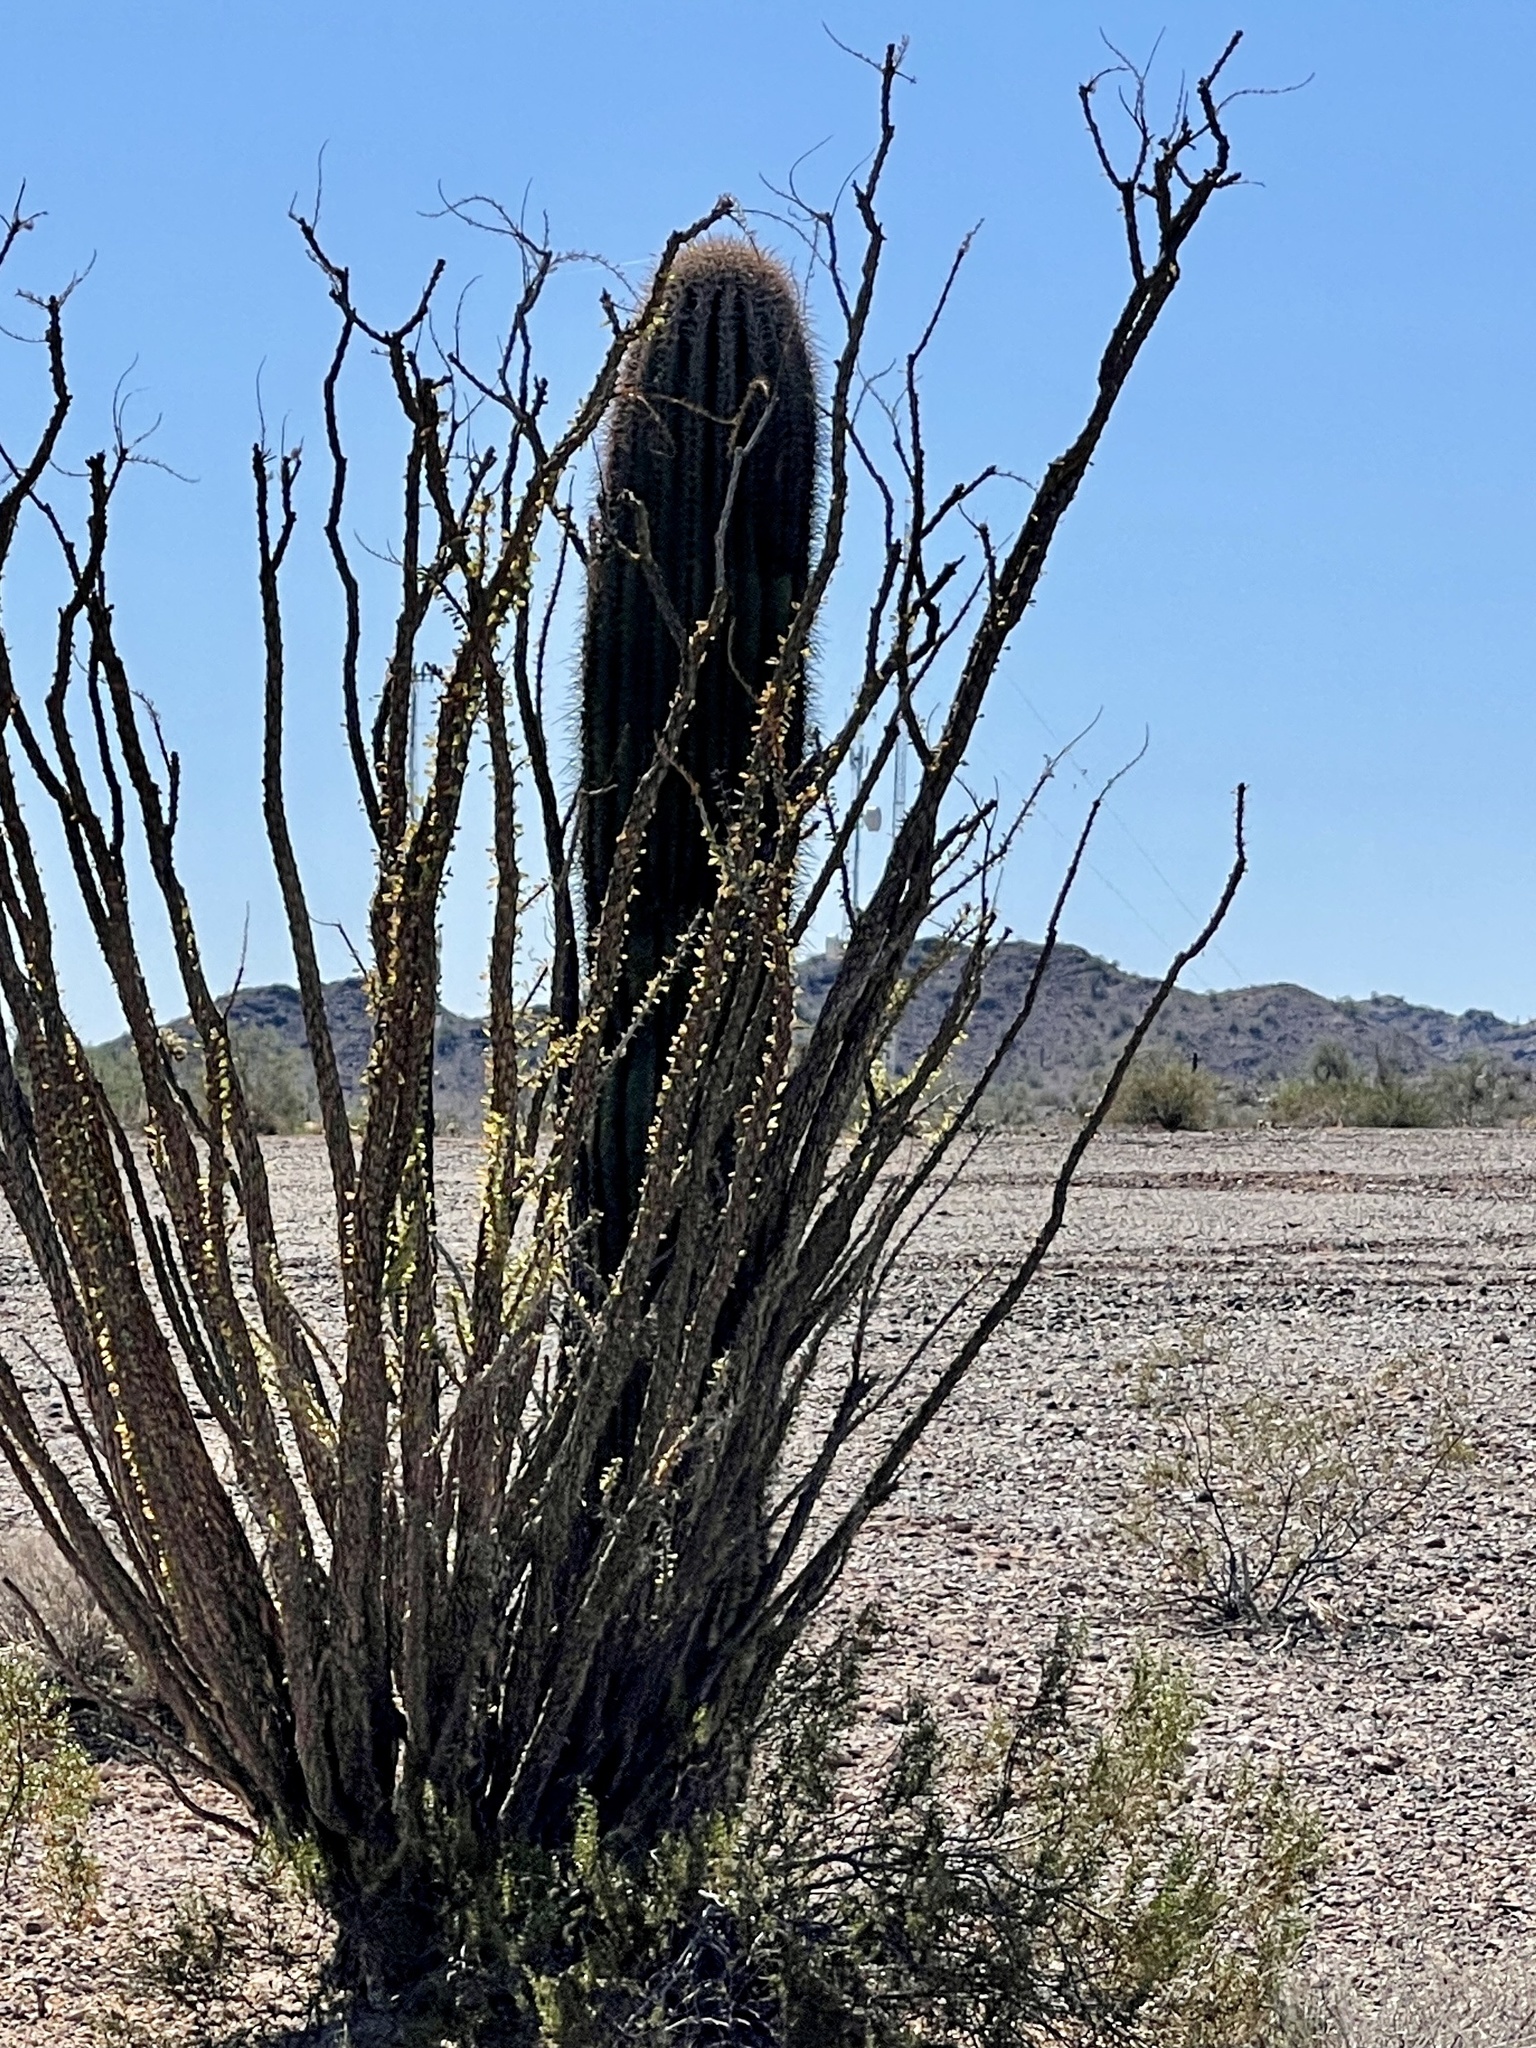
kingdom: Plantae
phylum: Tracheophyta
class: Magnoliopsida
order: Caryophyllales
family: Cactaceae
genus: Carnegiea
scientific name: Carnegiea gigantea
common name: Saguaro
